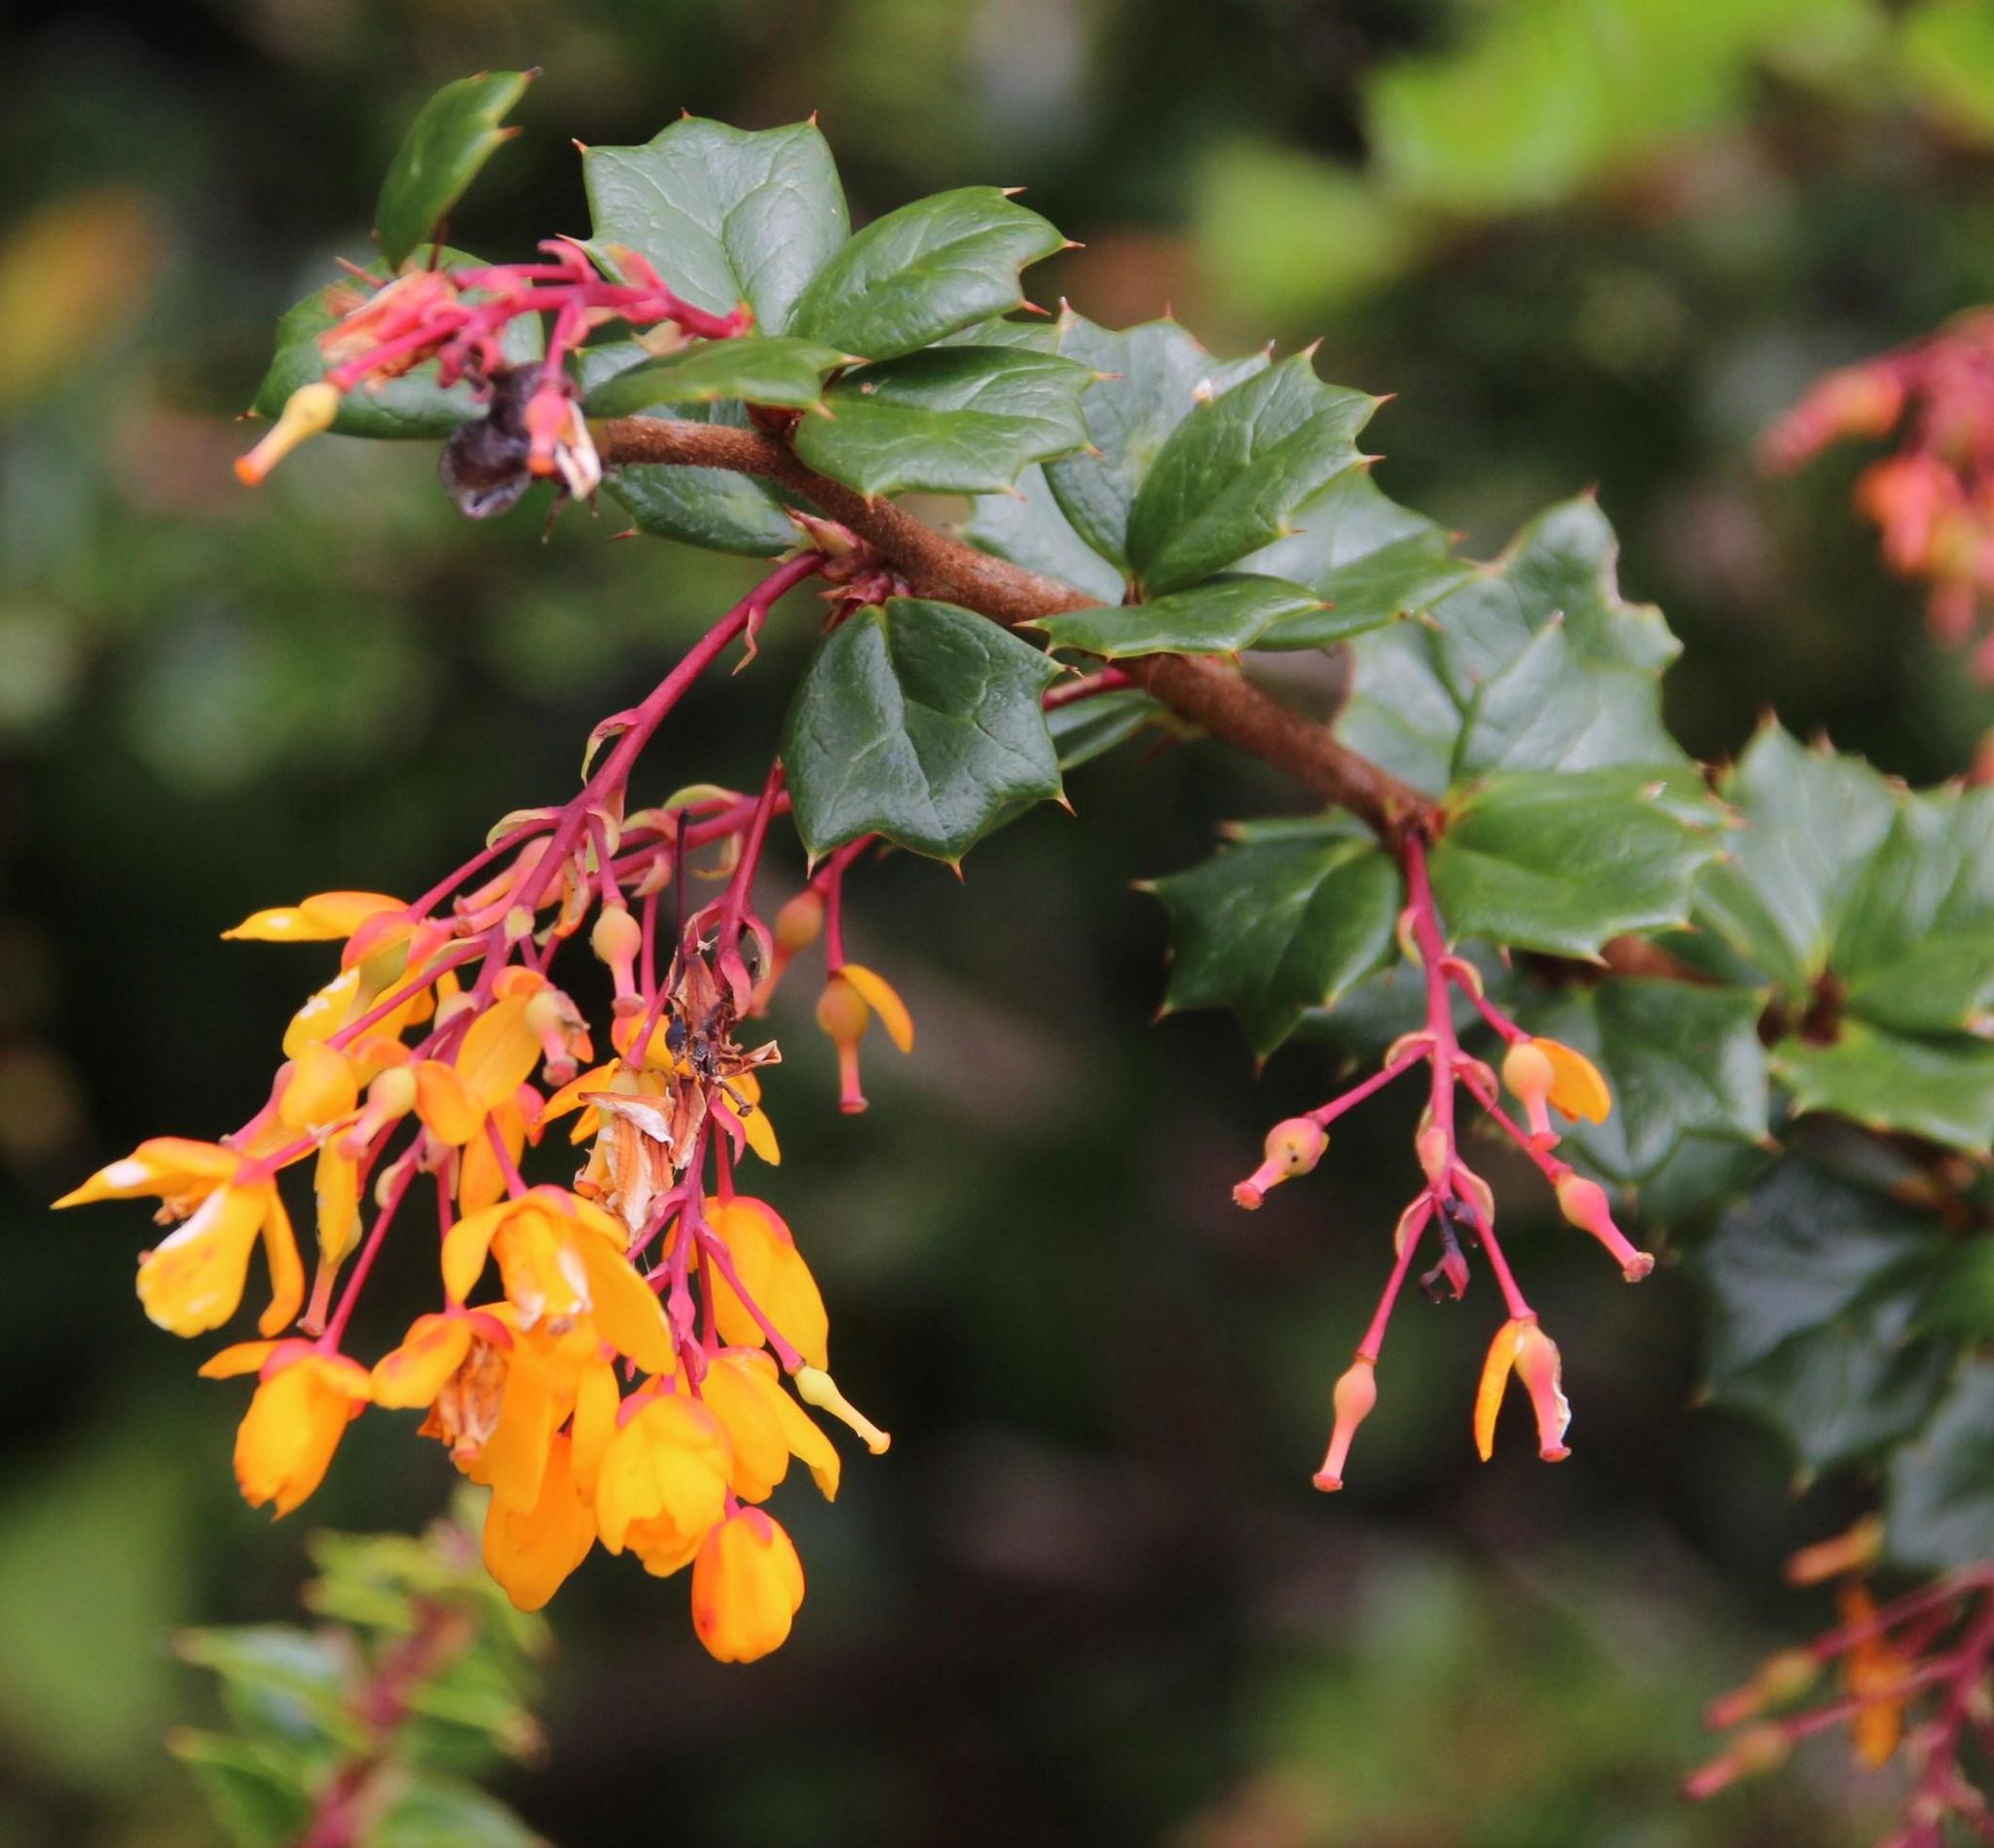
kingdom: Plantae
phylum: Tracheophyta
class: Magnoliopsida
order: Ranunculales
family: Berberidaceae
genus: Berberis
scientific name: Berberis darwinii
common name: Darwin's barberry
